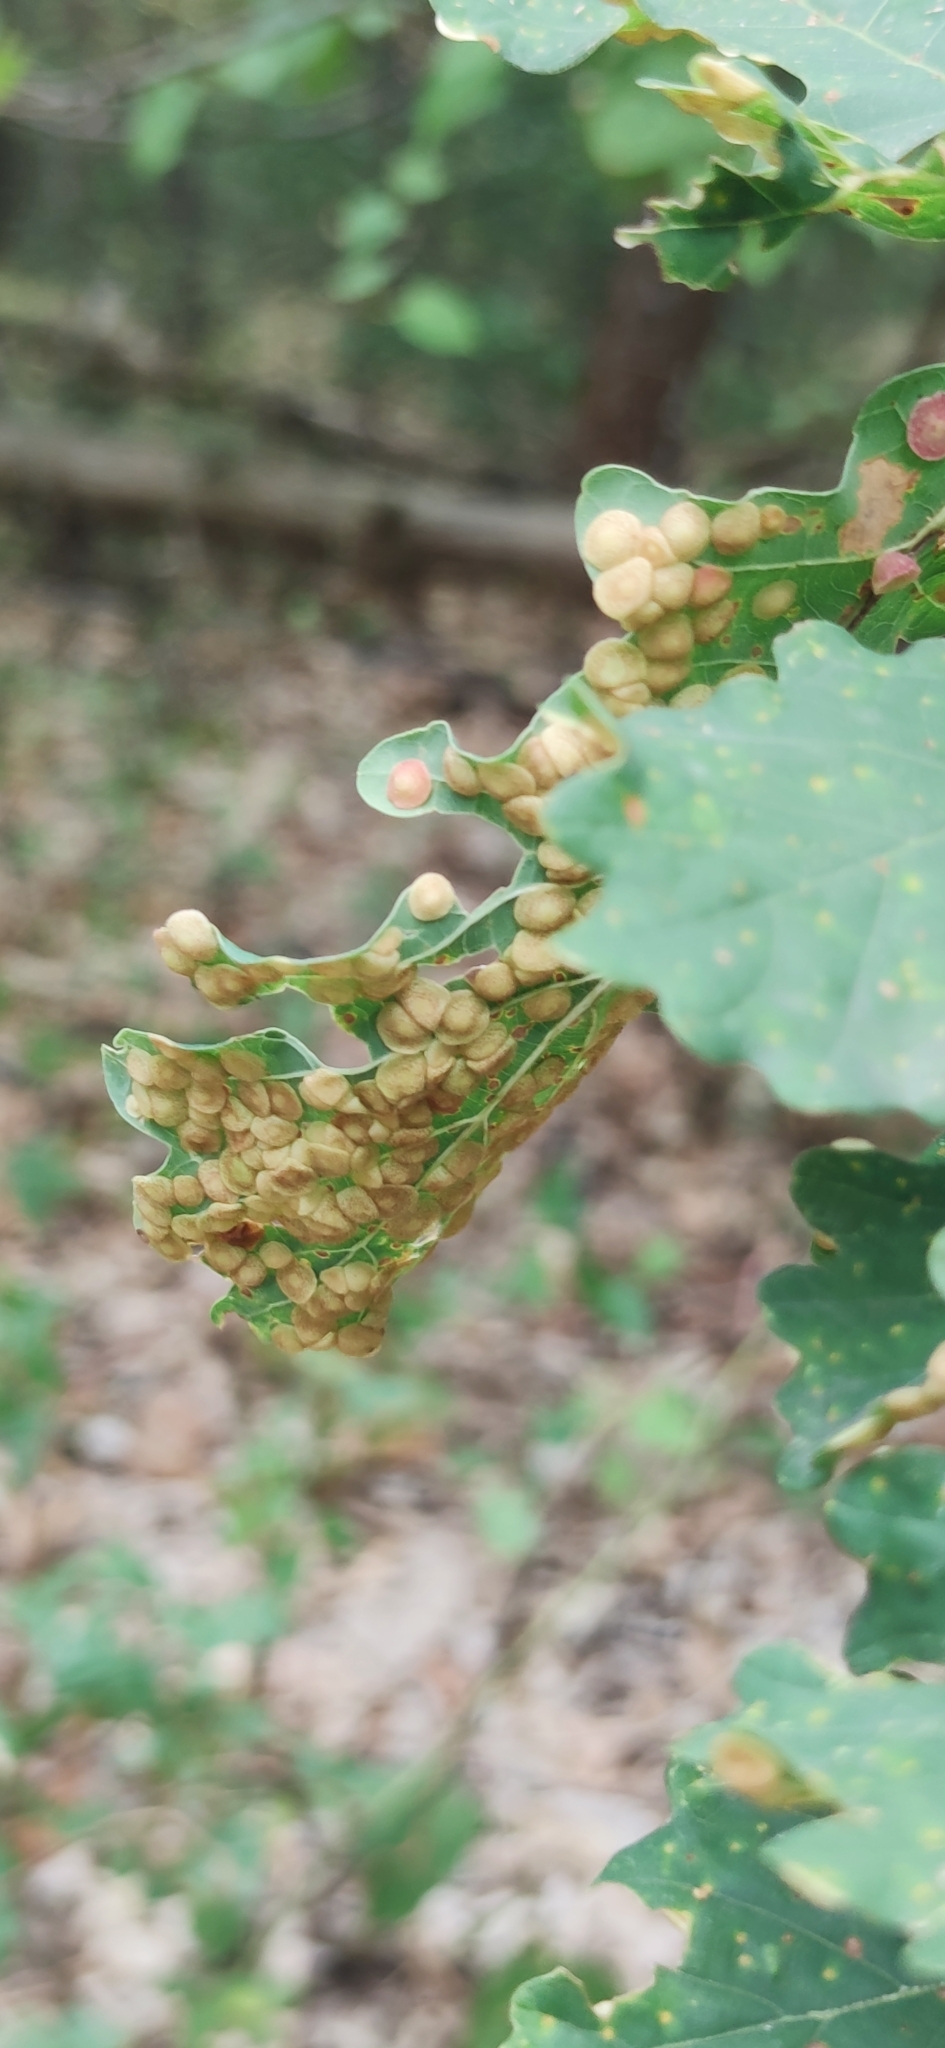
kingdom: Animalia
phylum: Arthropoda
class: Insecta
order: Hymenoptera
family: Cynipidae
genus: Neuroterus
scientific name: Neuroterus quercusbaccarum
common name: Common spangle gall
